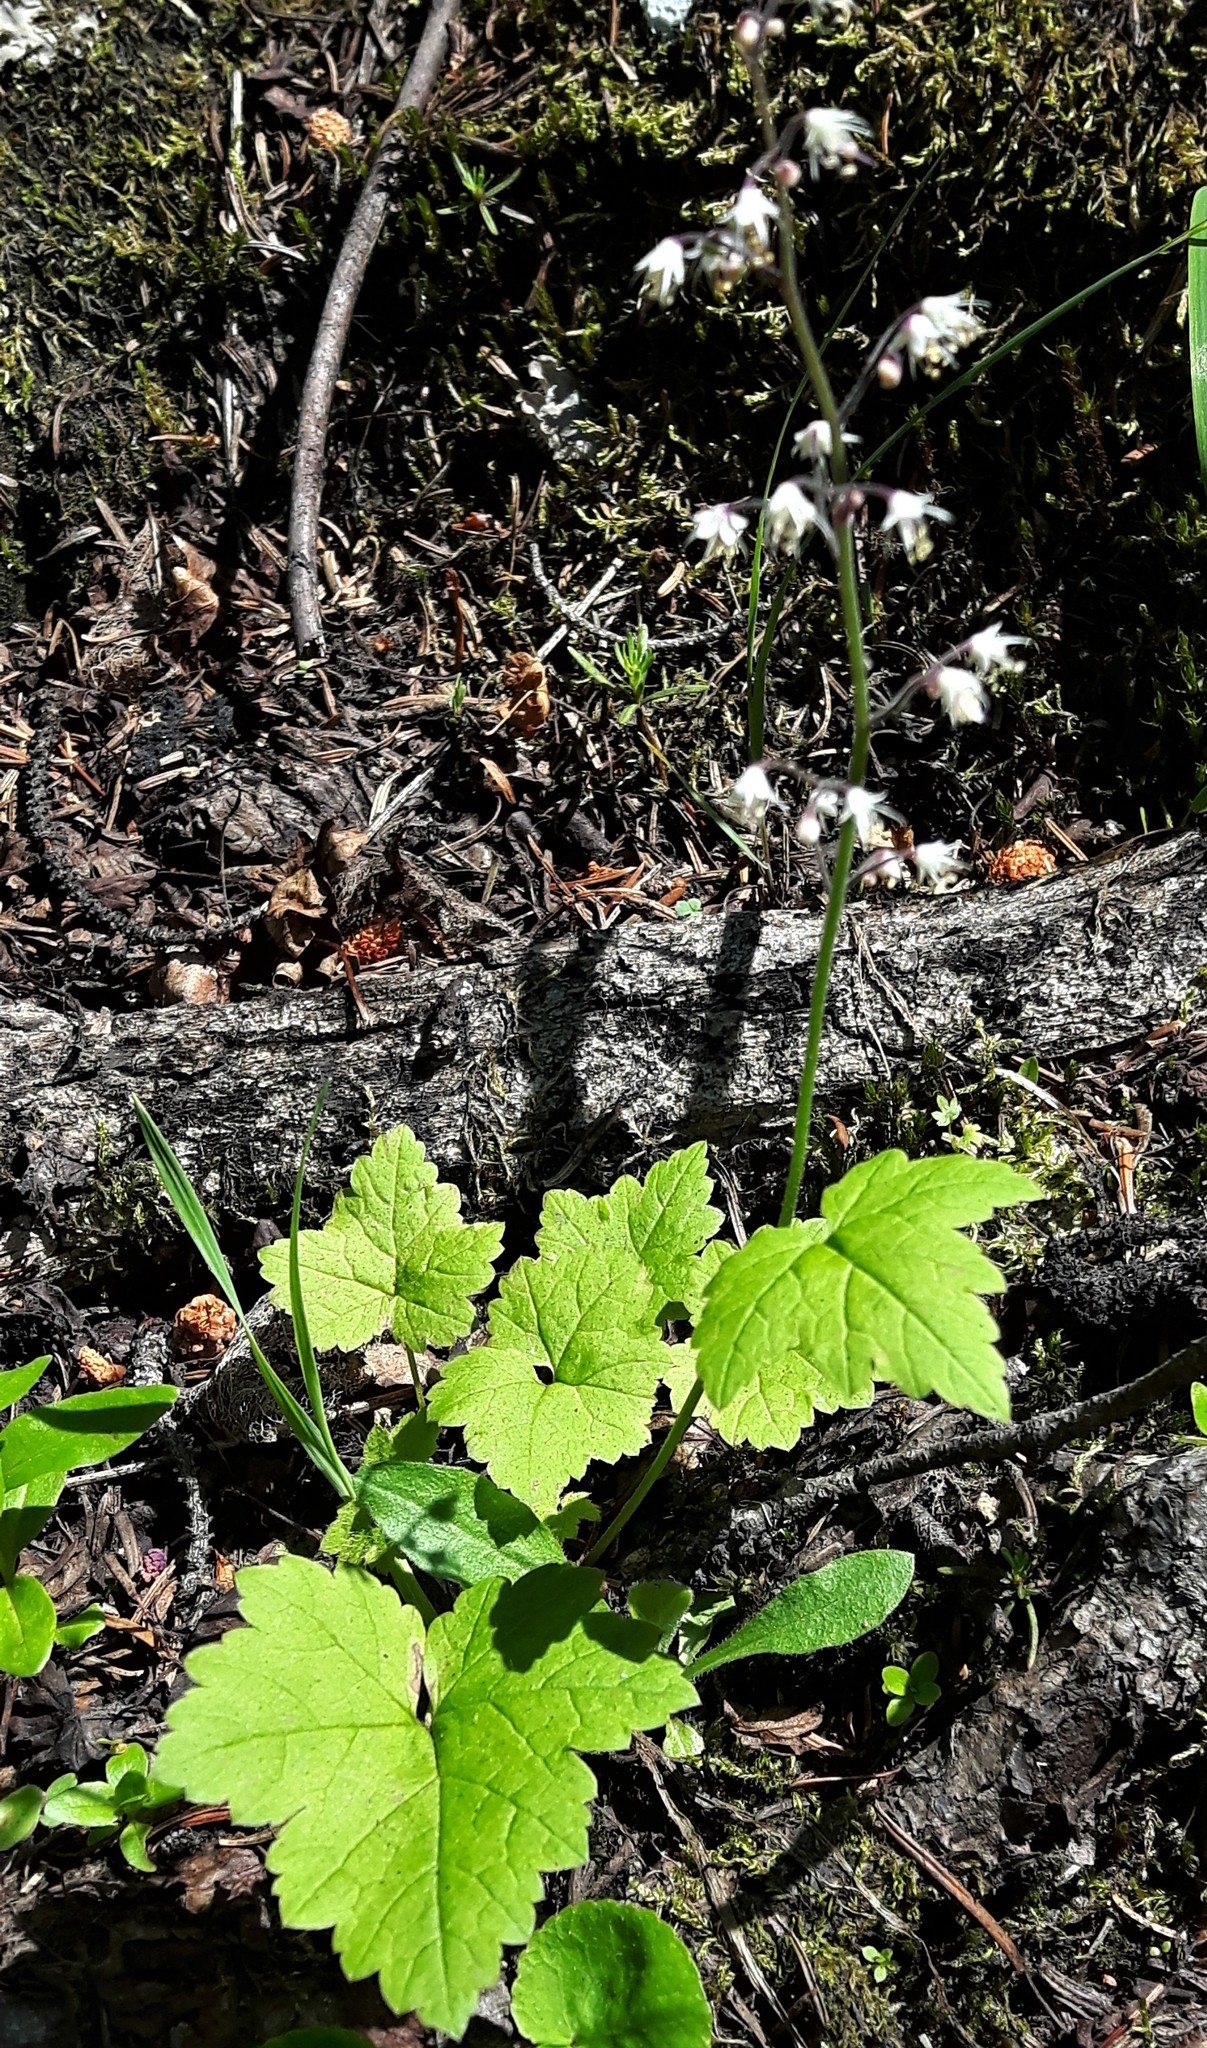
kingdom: Plantae
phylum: Tracheophyta
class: Magnoliopsida
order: Saxifragales
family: Saxifragaceae
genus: Tiarella
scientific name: Tiarella trifoliata
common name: Sugar-scoop
